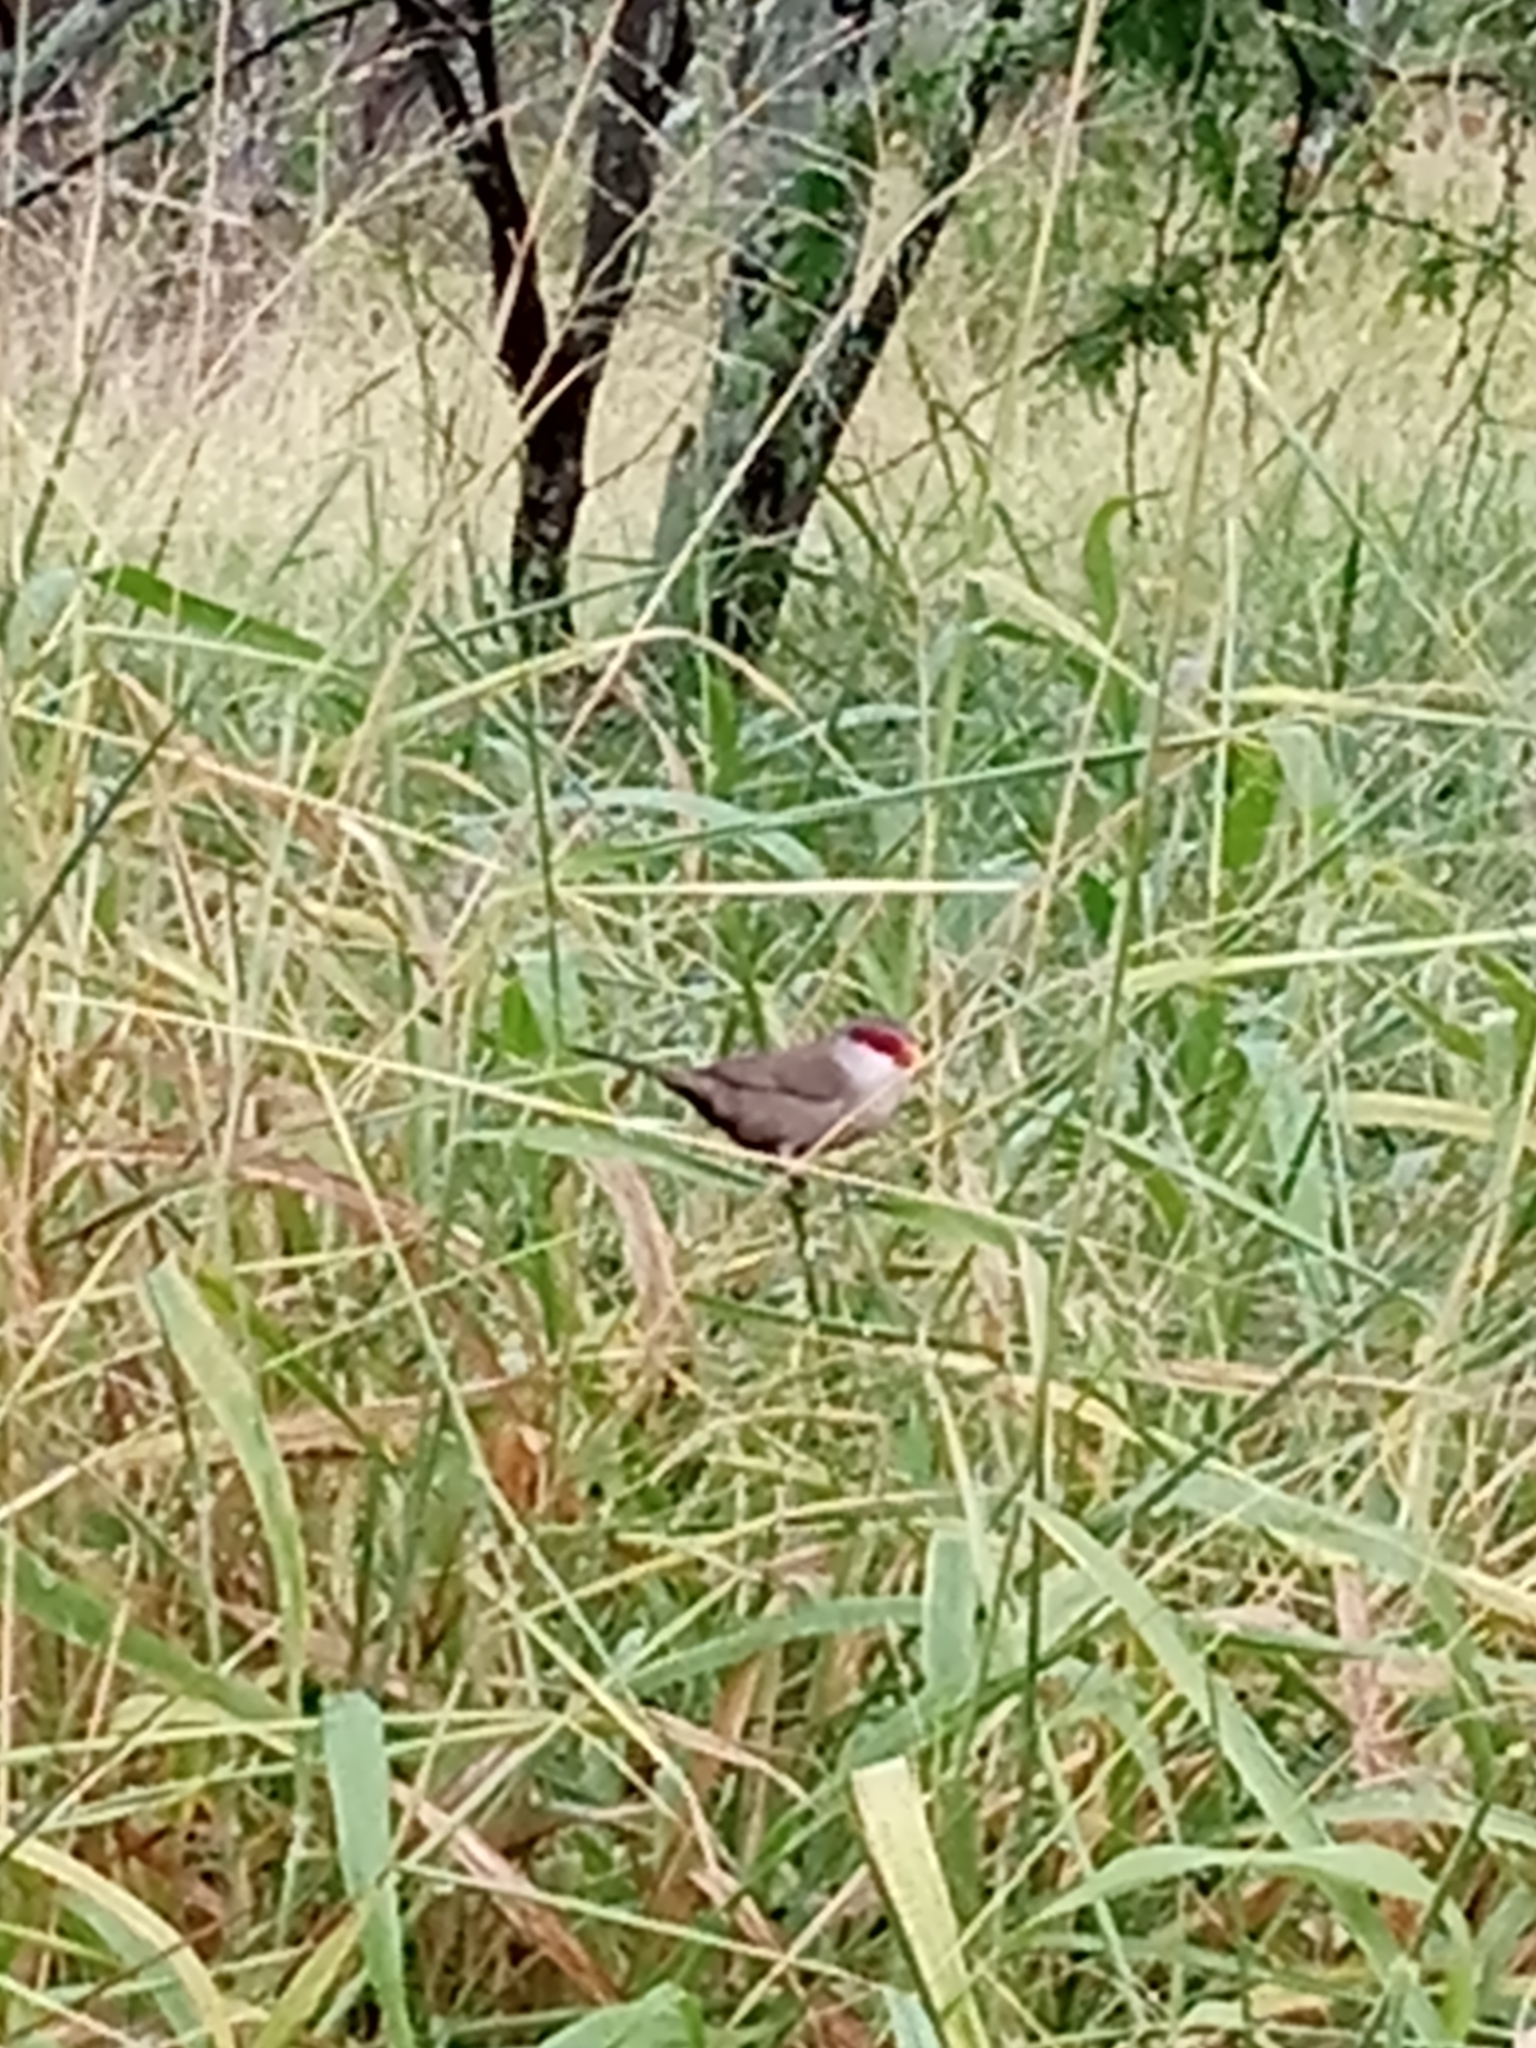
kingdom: Animalia
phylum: Chordata
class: Aves
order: Passeriformes
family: Estrildidae
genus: Estrilda
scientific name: Estrilda astrild
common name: Common waxbill
